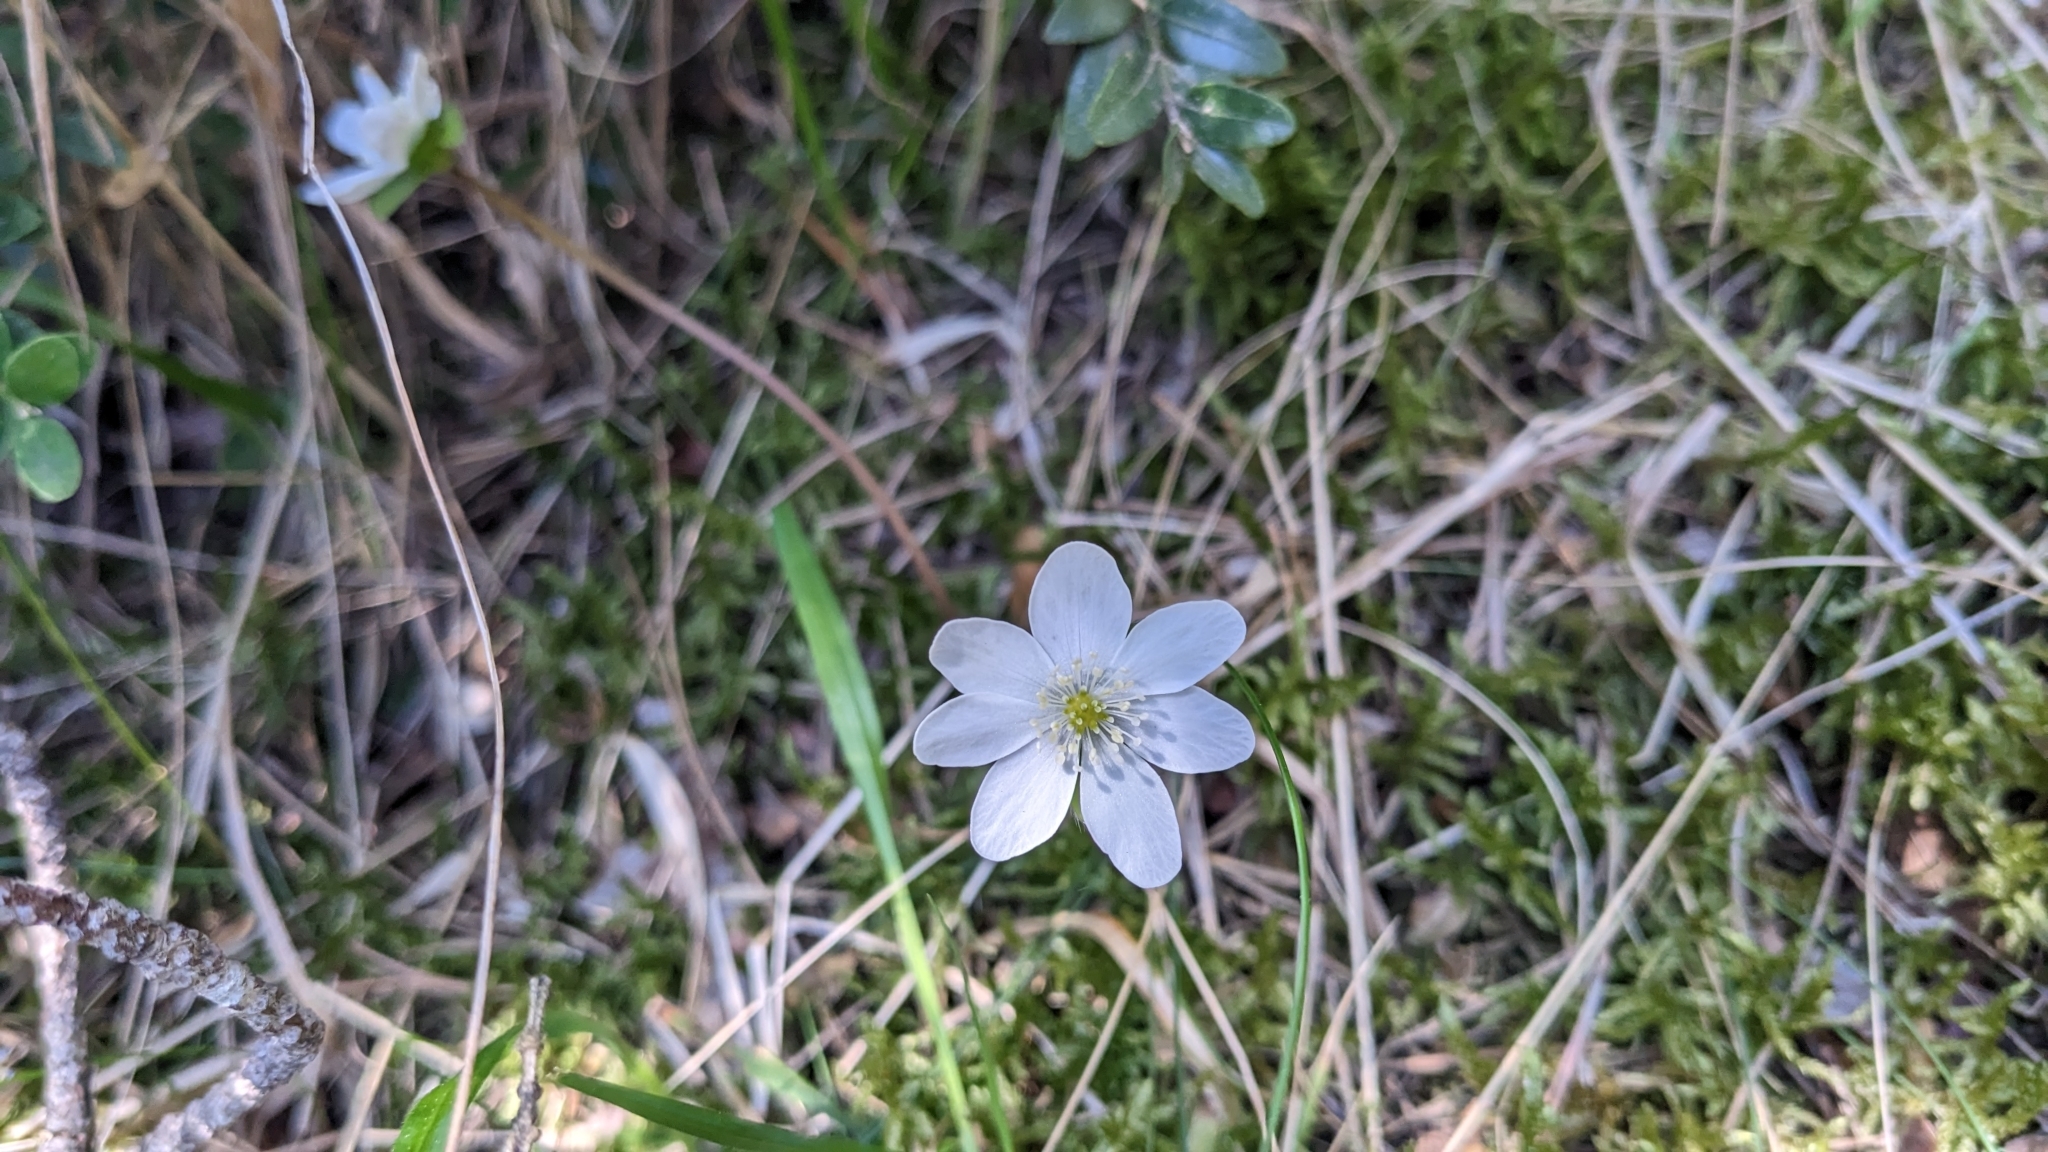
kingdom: Plantae
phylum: Tracheophyta
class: Magnoliopsida
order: Ranunculales
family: Ranunculaceae
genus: Hepatica
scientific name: Hepatica nobilis
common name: Liverleaf
